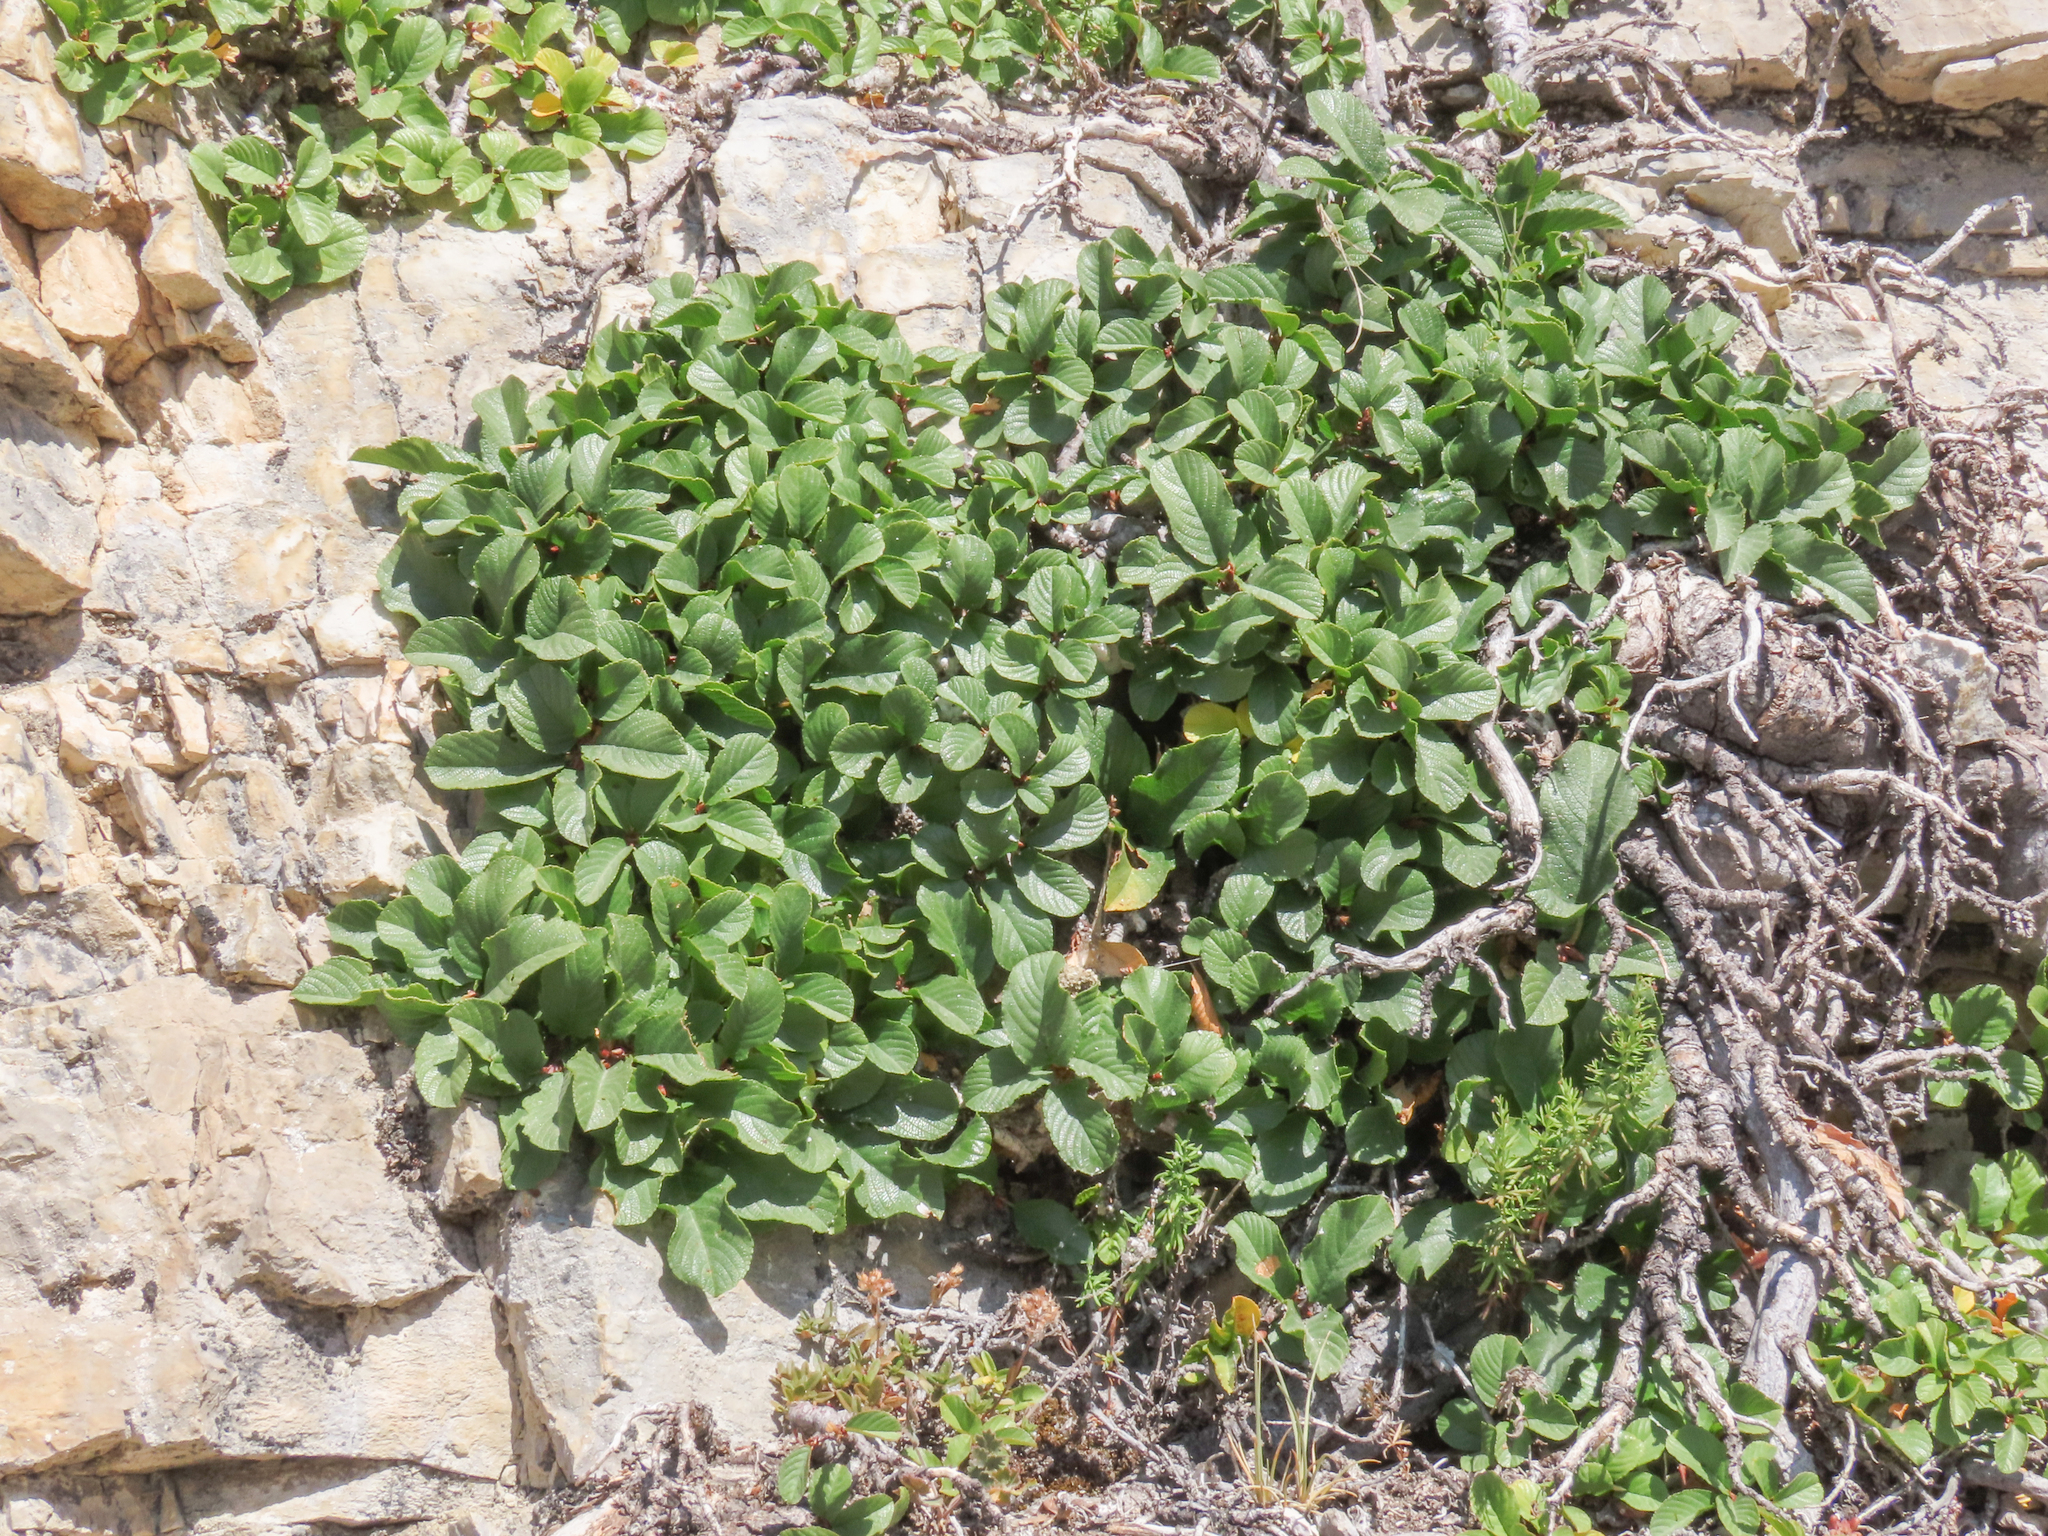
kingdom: Plantae
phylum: Tracheophyta
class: Magnoliopsida
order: Rosales
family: Rhamnaceae
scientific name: Rhamnaceae
